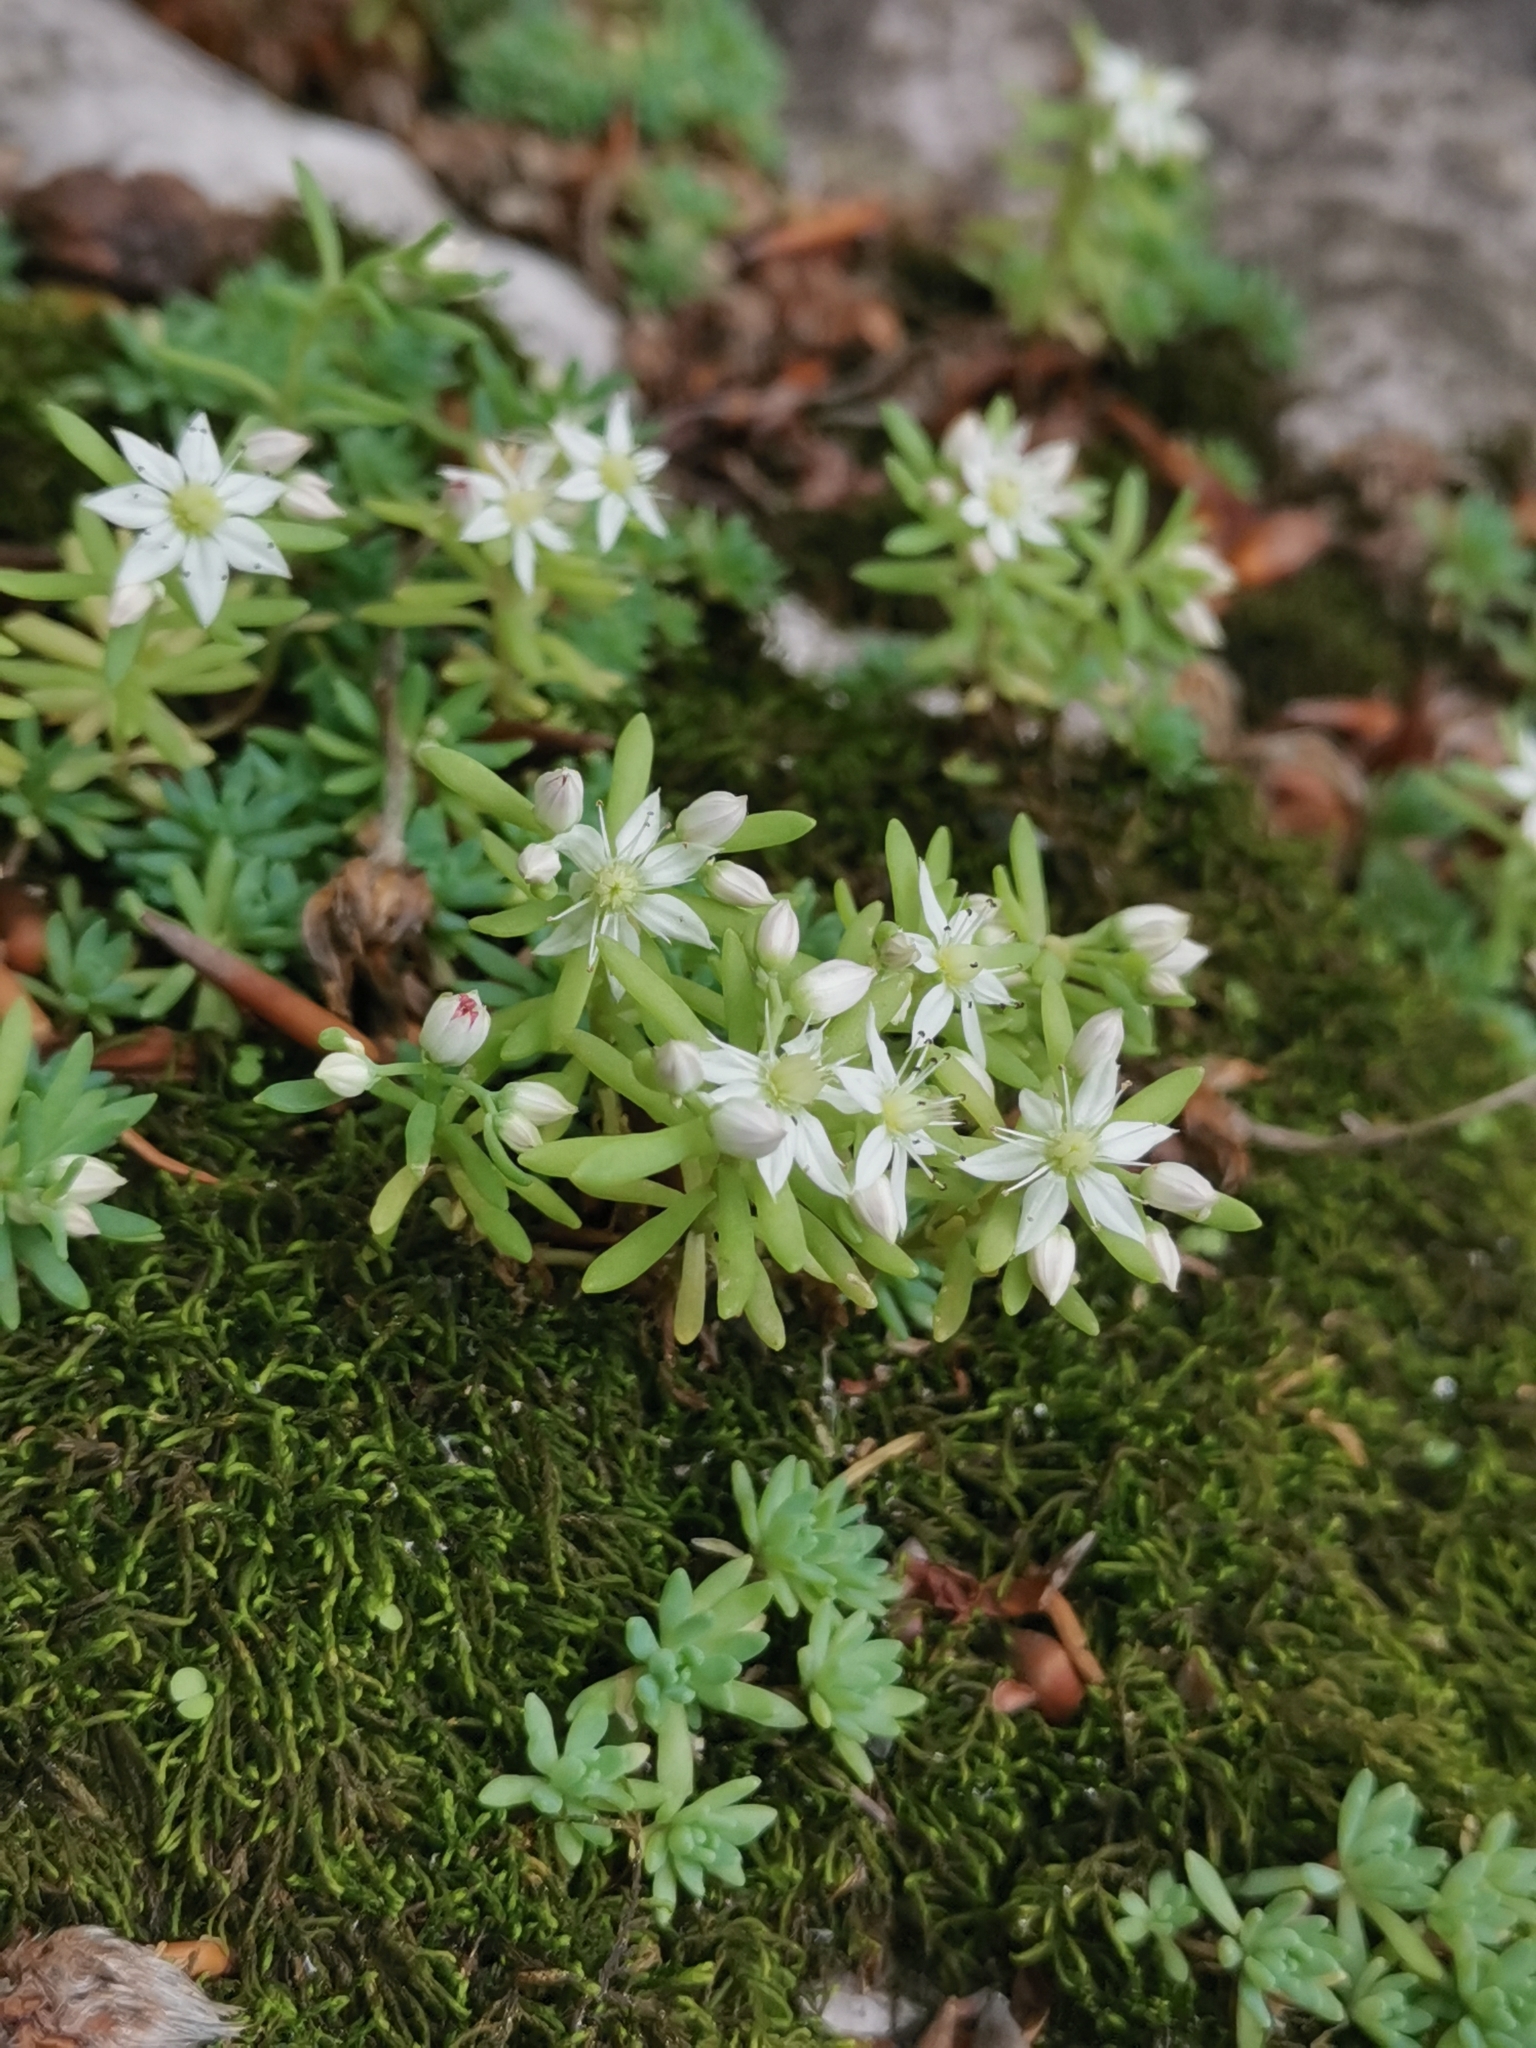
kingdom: Plantae
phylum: Tracheophyta
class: Magnoliopsida
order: Saxifragales
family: Crassulaceae
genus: Sedum
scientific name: Sedum hispanicum
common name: Spanish stonecrop
